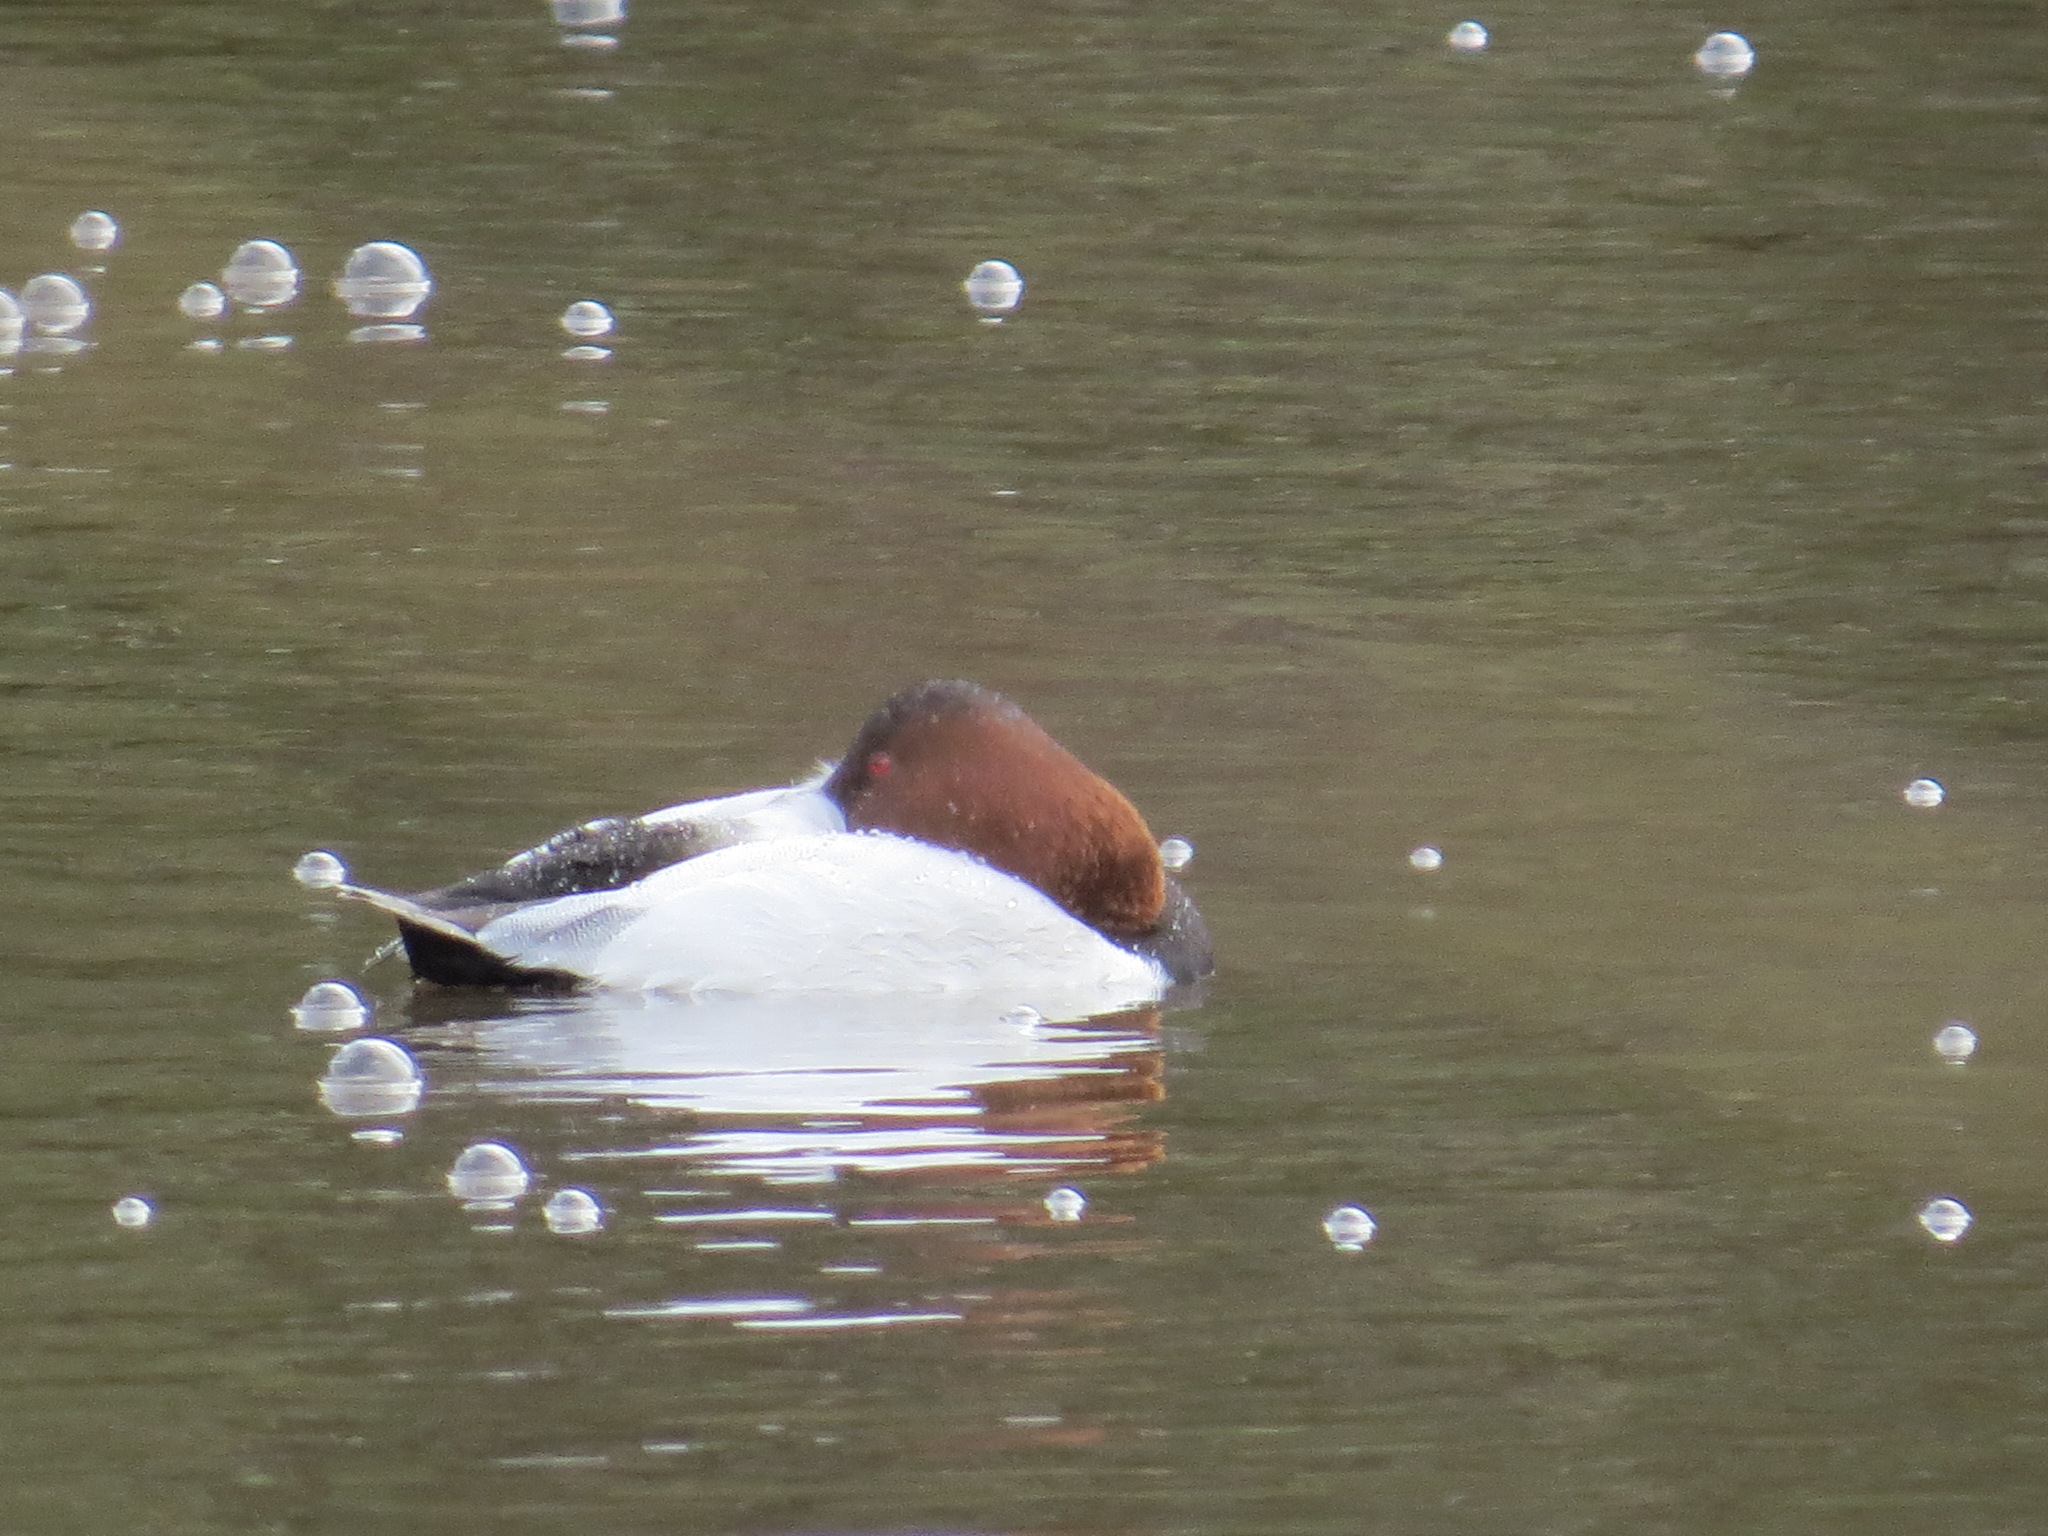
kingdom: Animalia
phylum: Chordata
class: Aves
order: Anseriformes
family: Anatidae
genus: Aythya
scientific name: Aythya valisineria
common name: Canvasback
